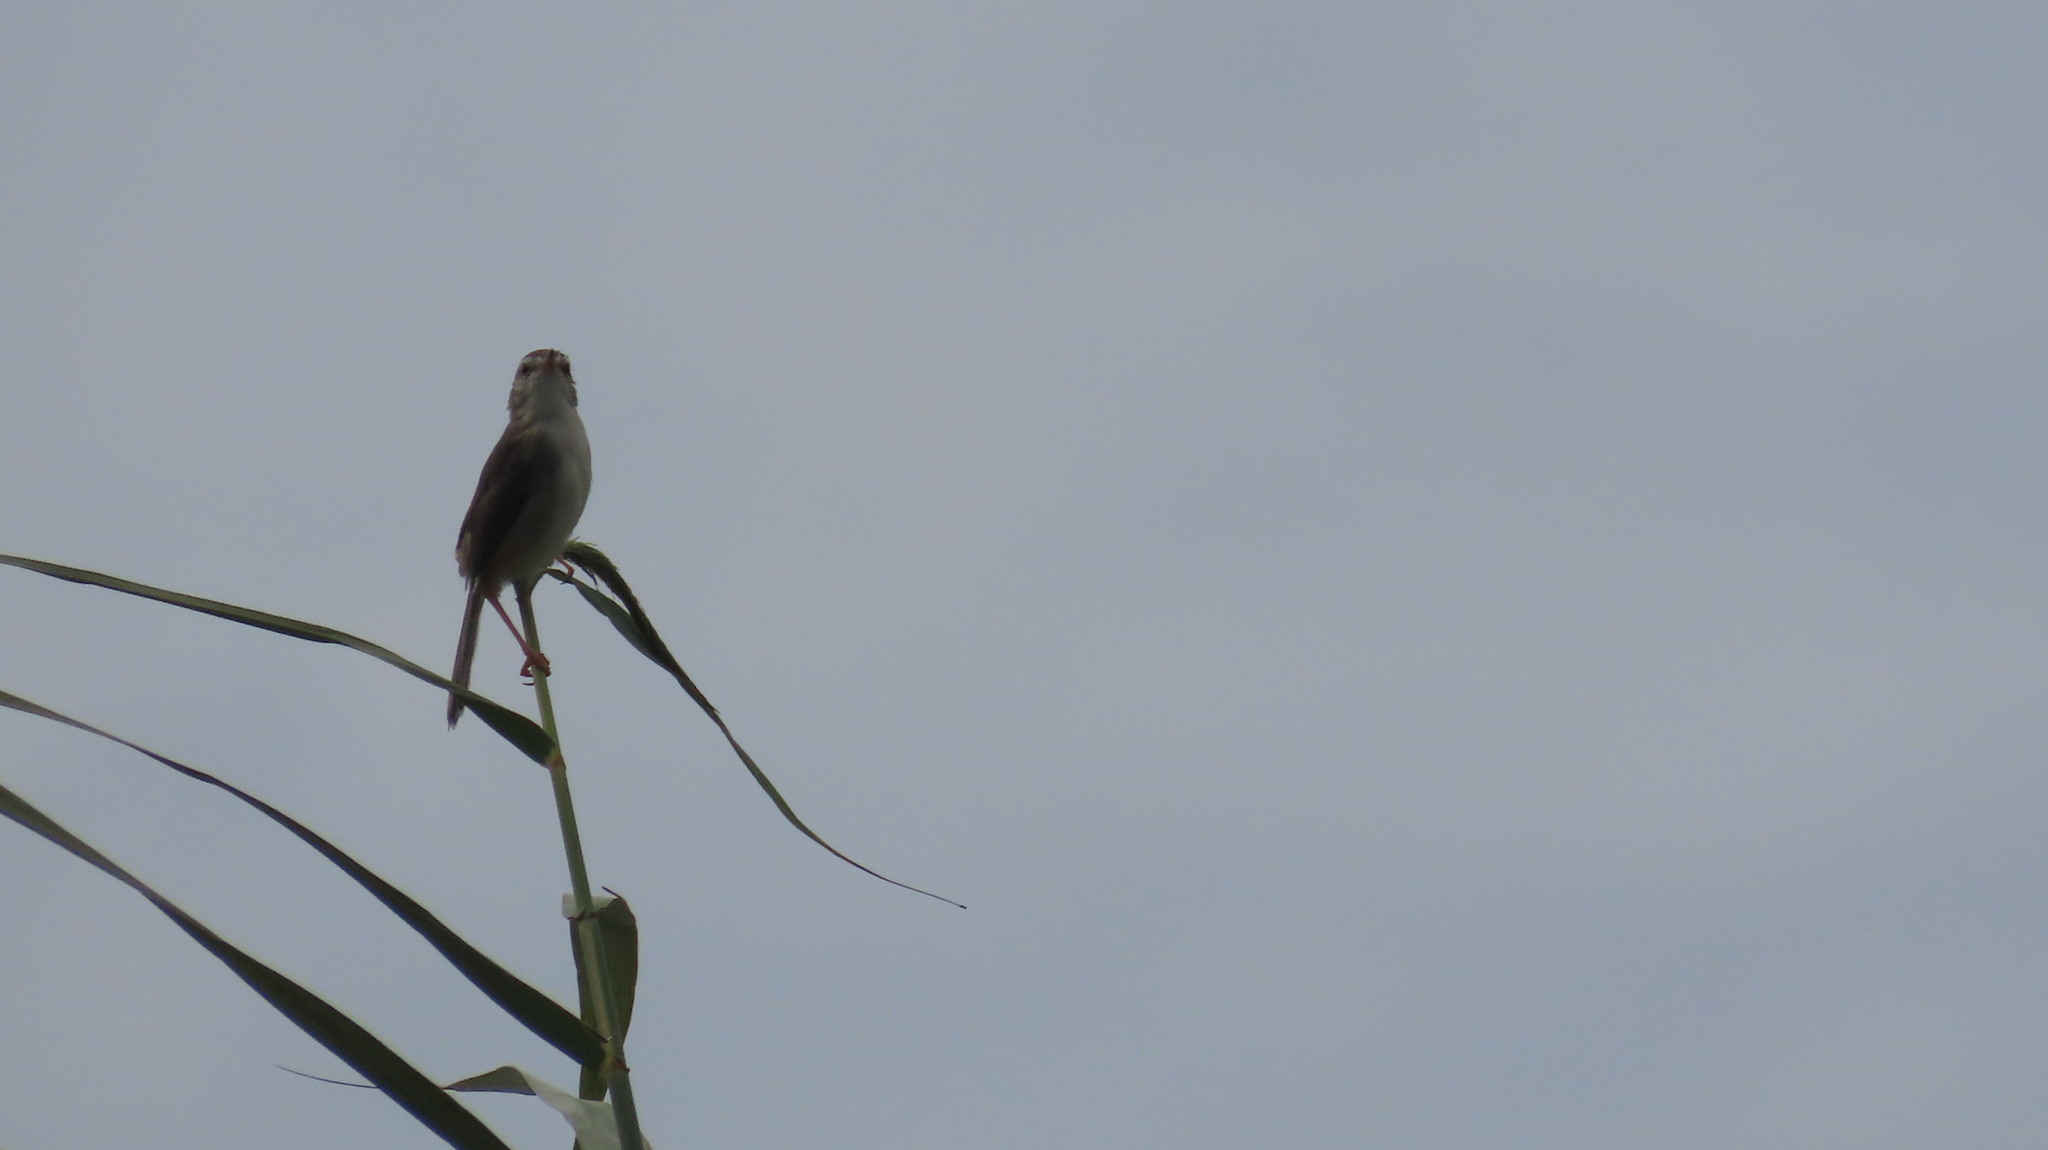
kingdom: Animalia
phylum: Chordata
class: Aves
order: Passeriformes
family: Cisticolidae
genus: Prinia
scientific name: Prinia inornata
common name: Plain prinia
